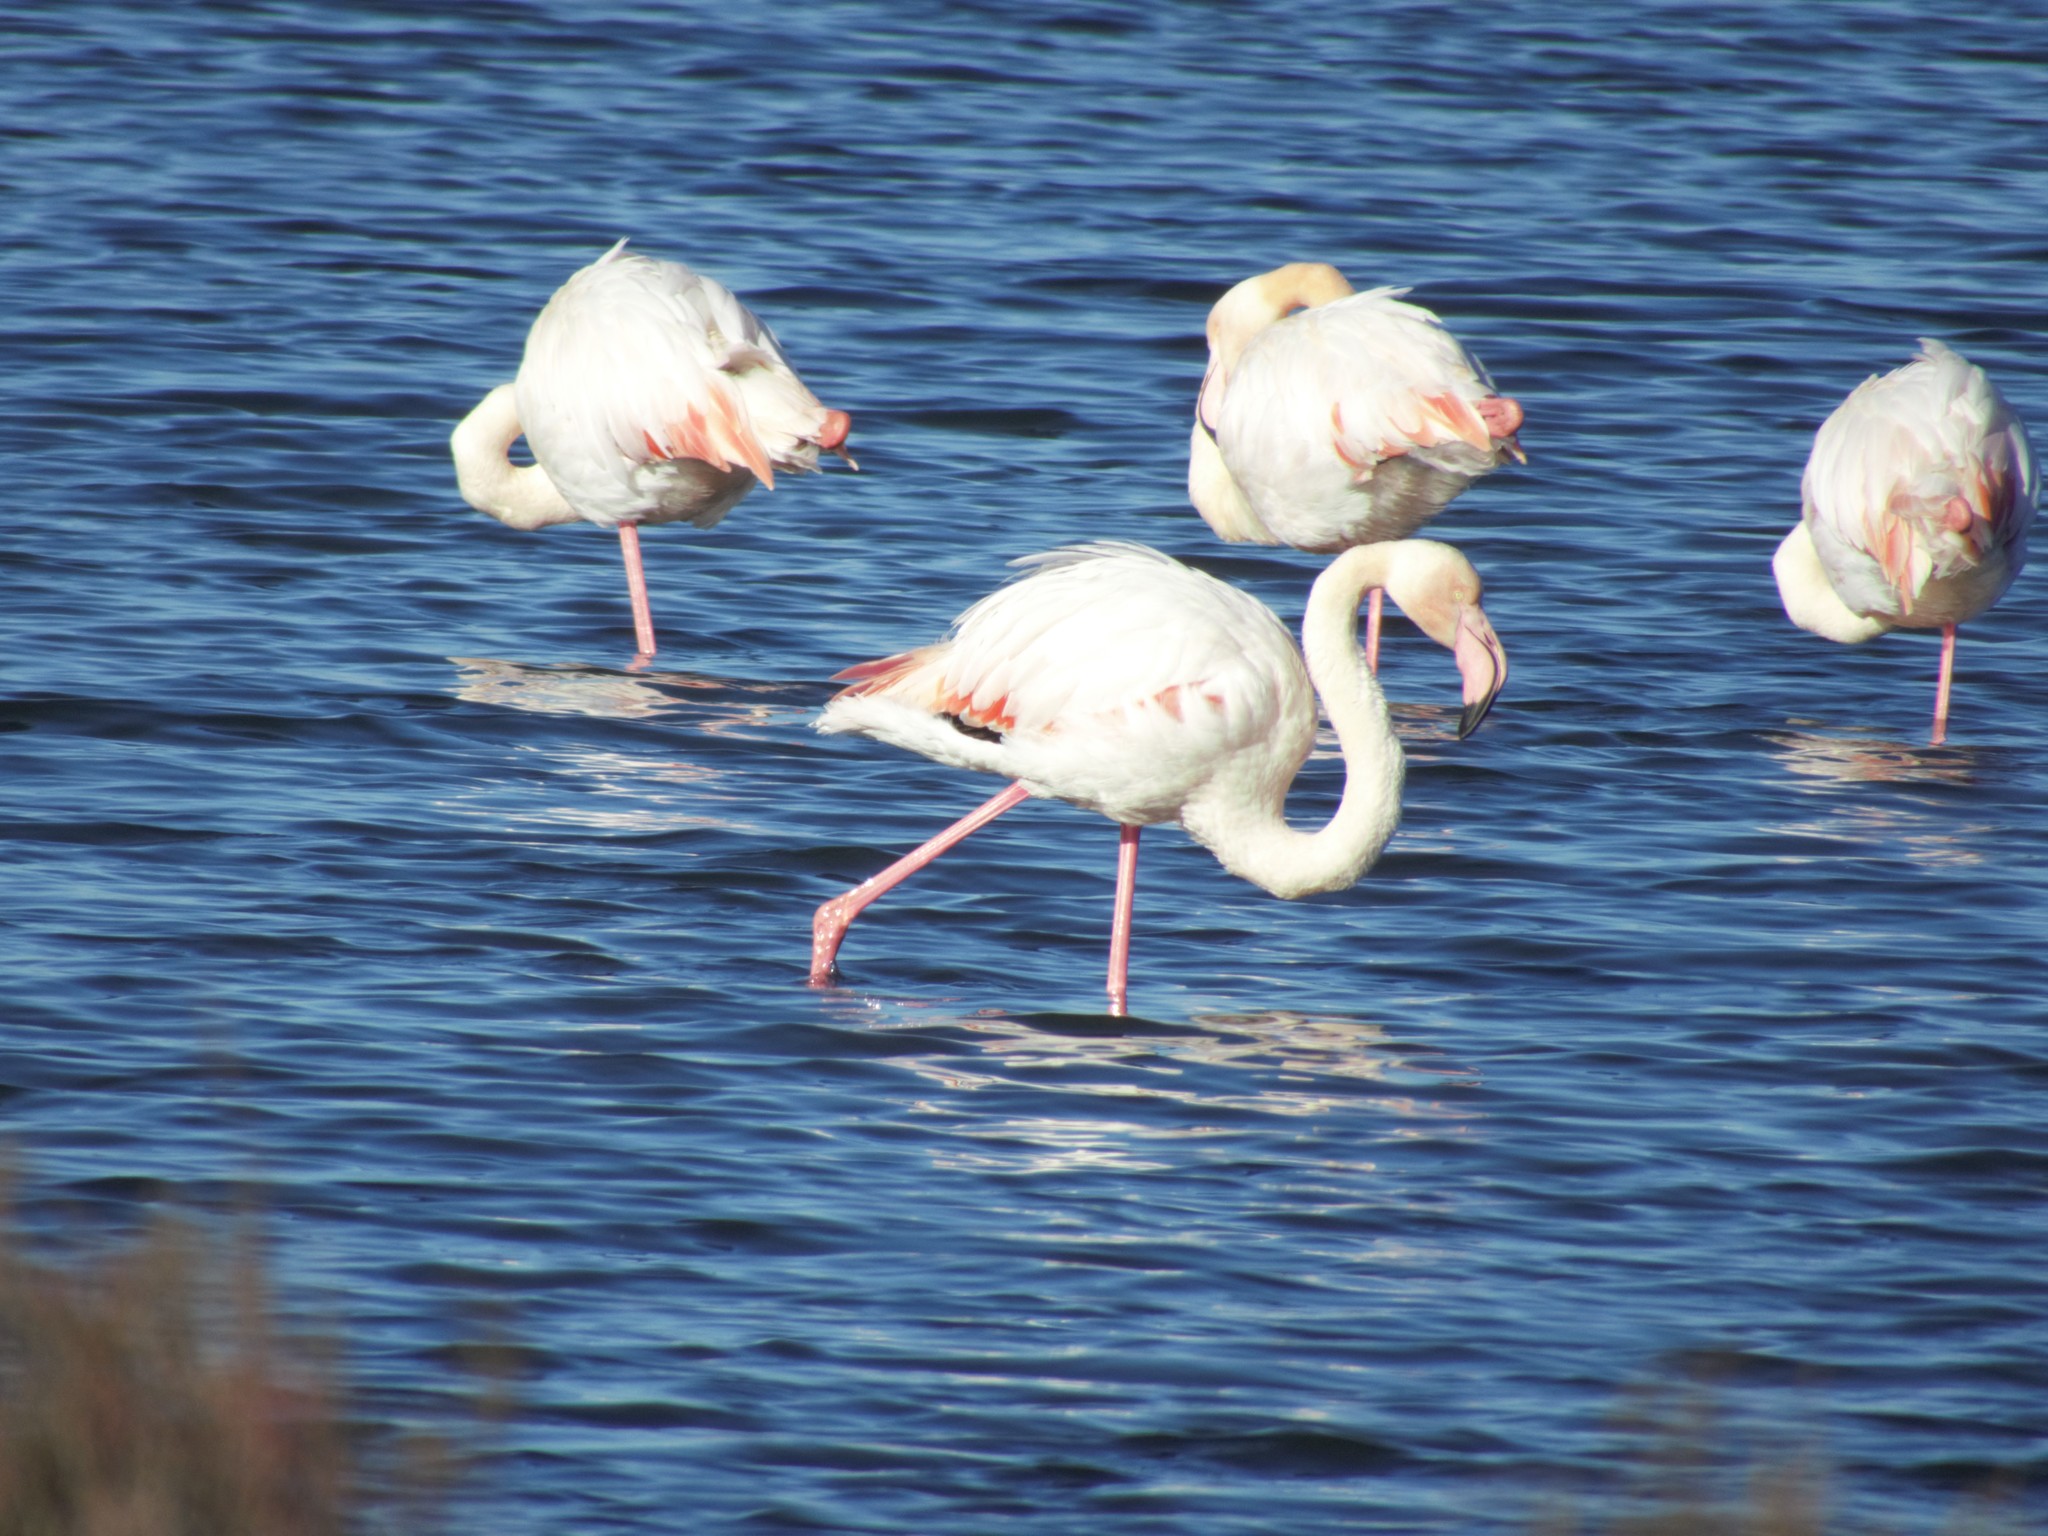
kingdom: Animalia
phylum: Chordata
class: Aves
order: Phoenicopteriformes
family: Phoenicopteridae
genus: Phoenicopterus
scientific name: Phoenicopterus roseus
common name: Greater flamingo
